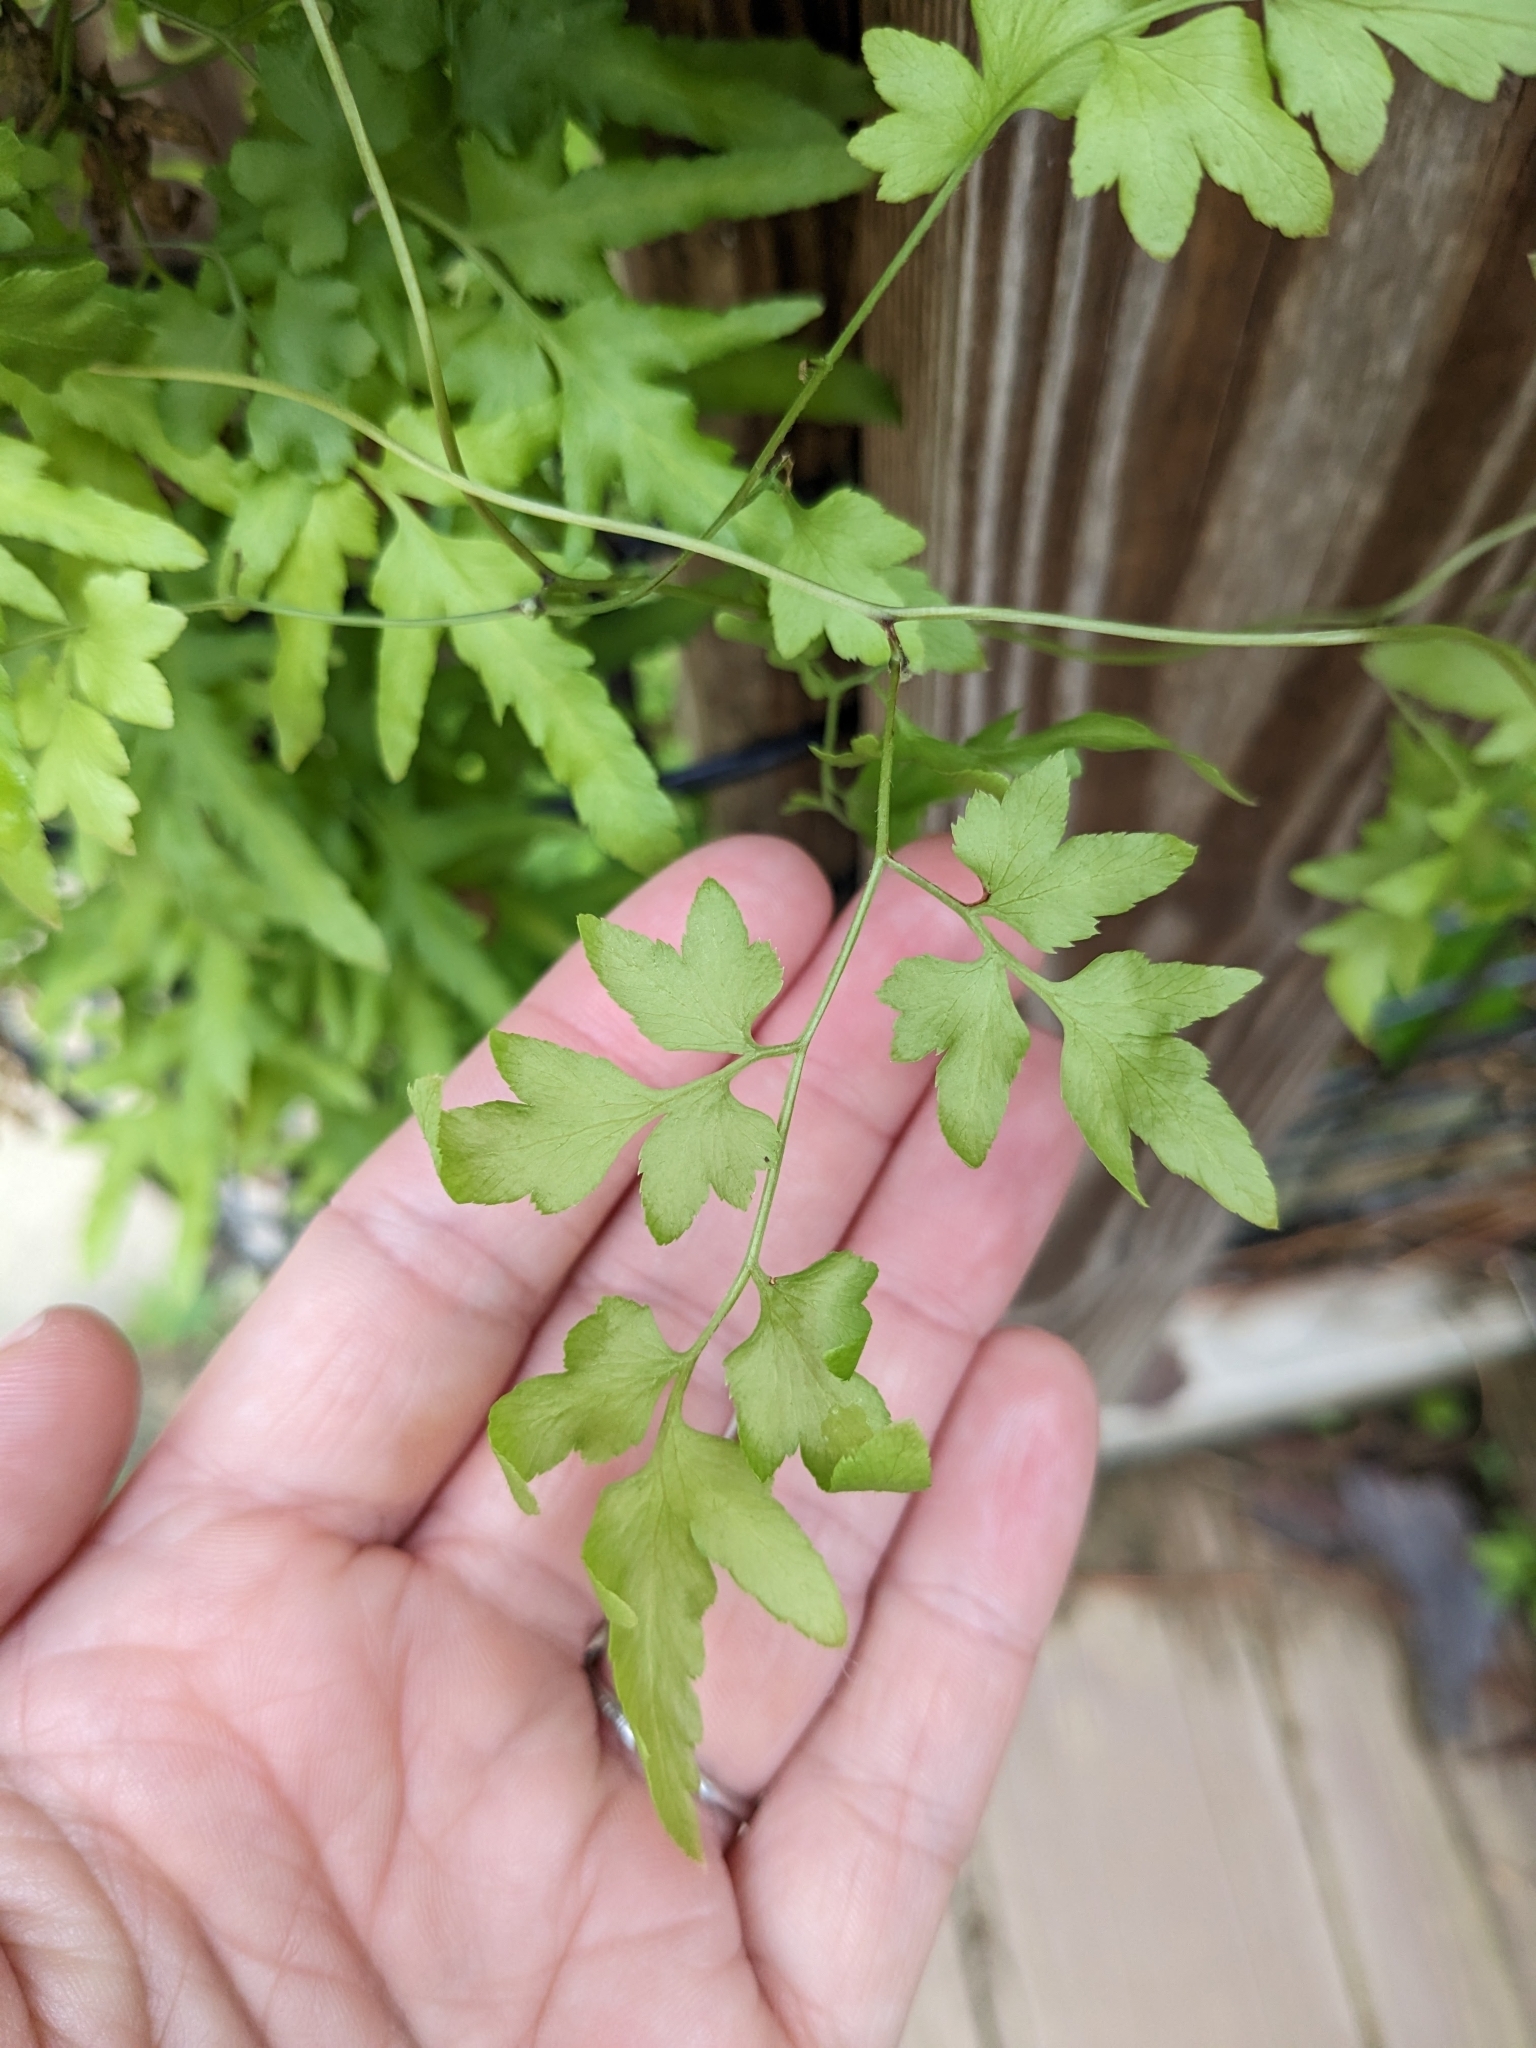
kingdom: Plantae
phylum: Tracheophyta
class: Polypodiopsida
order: Schizaeales
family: Lygodiaceae
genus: Lygodium
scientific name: Lygodium japonicum
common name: Japanese climbing fern
